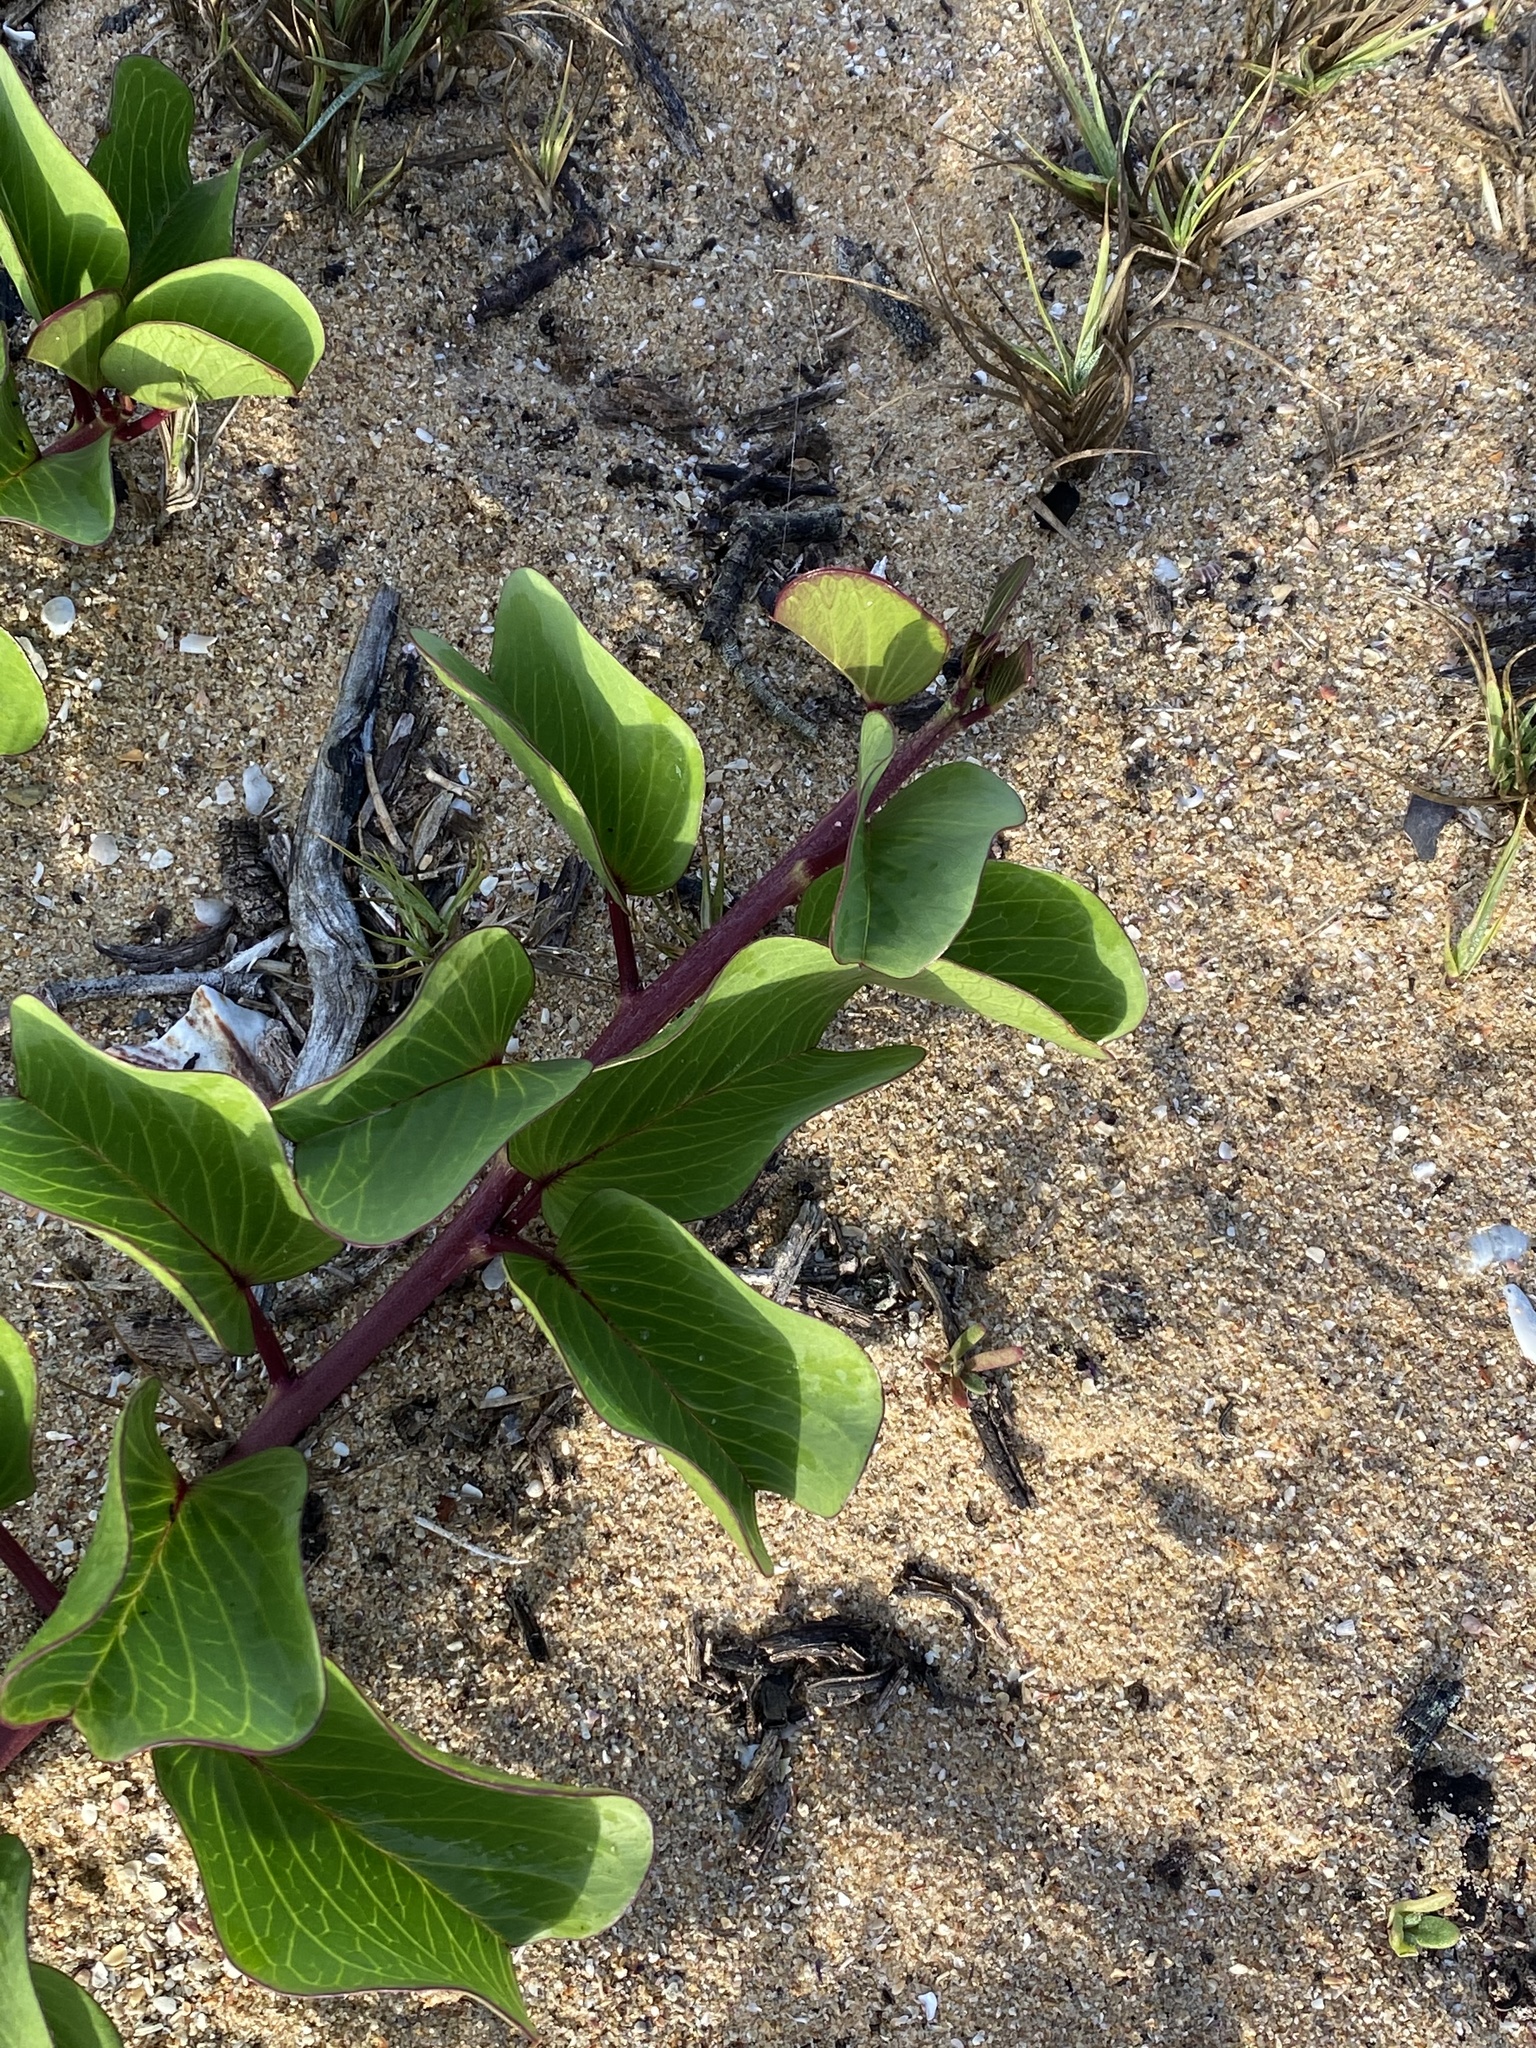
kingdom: Plantae
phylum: Tracheophyta
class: Magnoliopsida
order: Solanales
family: Convolvulaceae
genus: Ipomoea
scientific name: Ipomoea pes-caprae
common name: Beach morning glory
